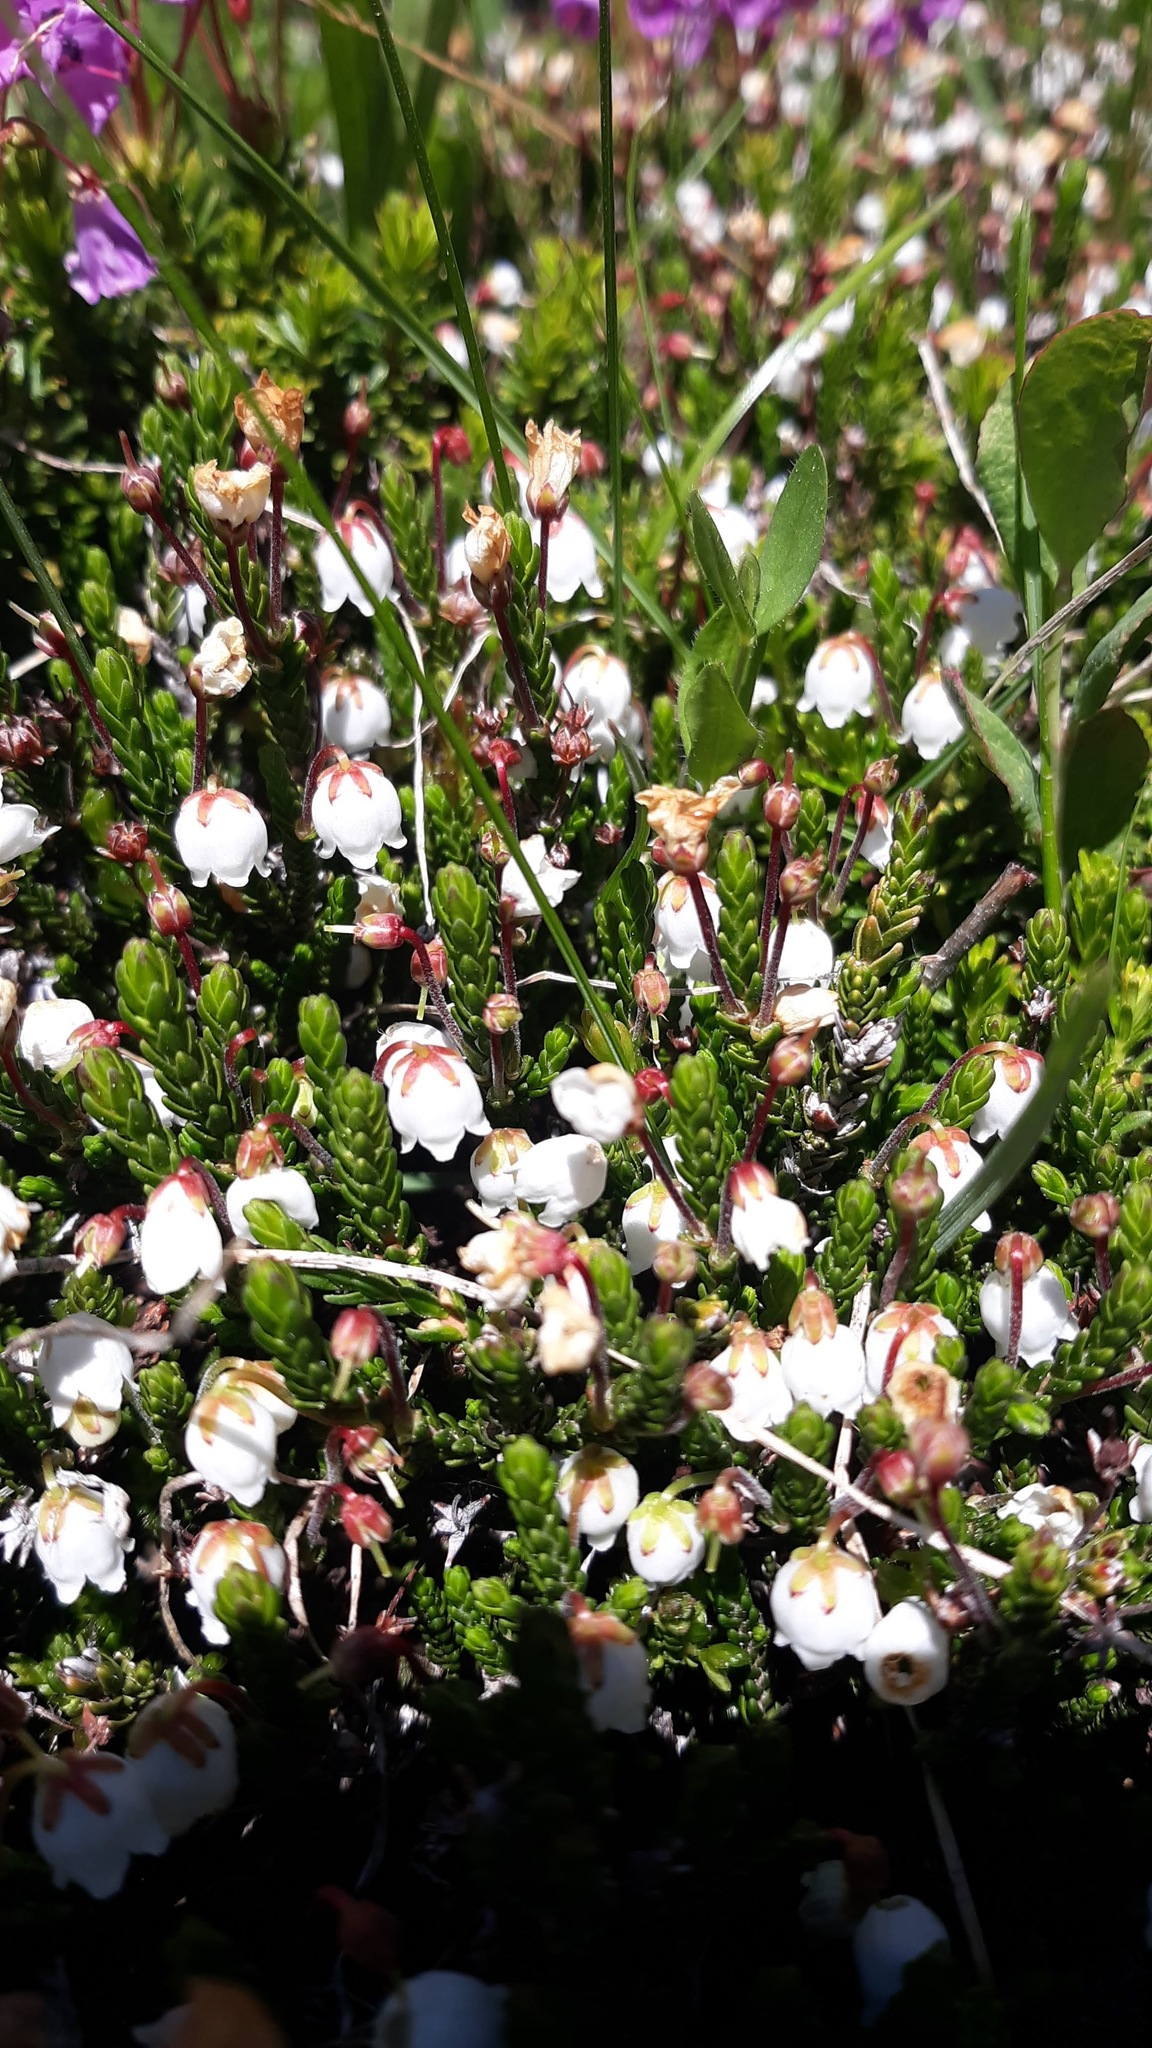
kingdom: Plantae
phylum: Tracheophyta
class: Magnoliopsida
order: Ericales
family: Ericaceae
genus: Cassiope
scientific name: Cassiope mertensiana
